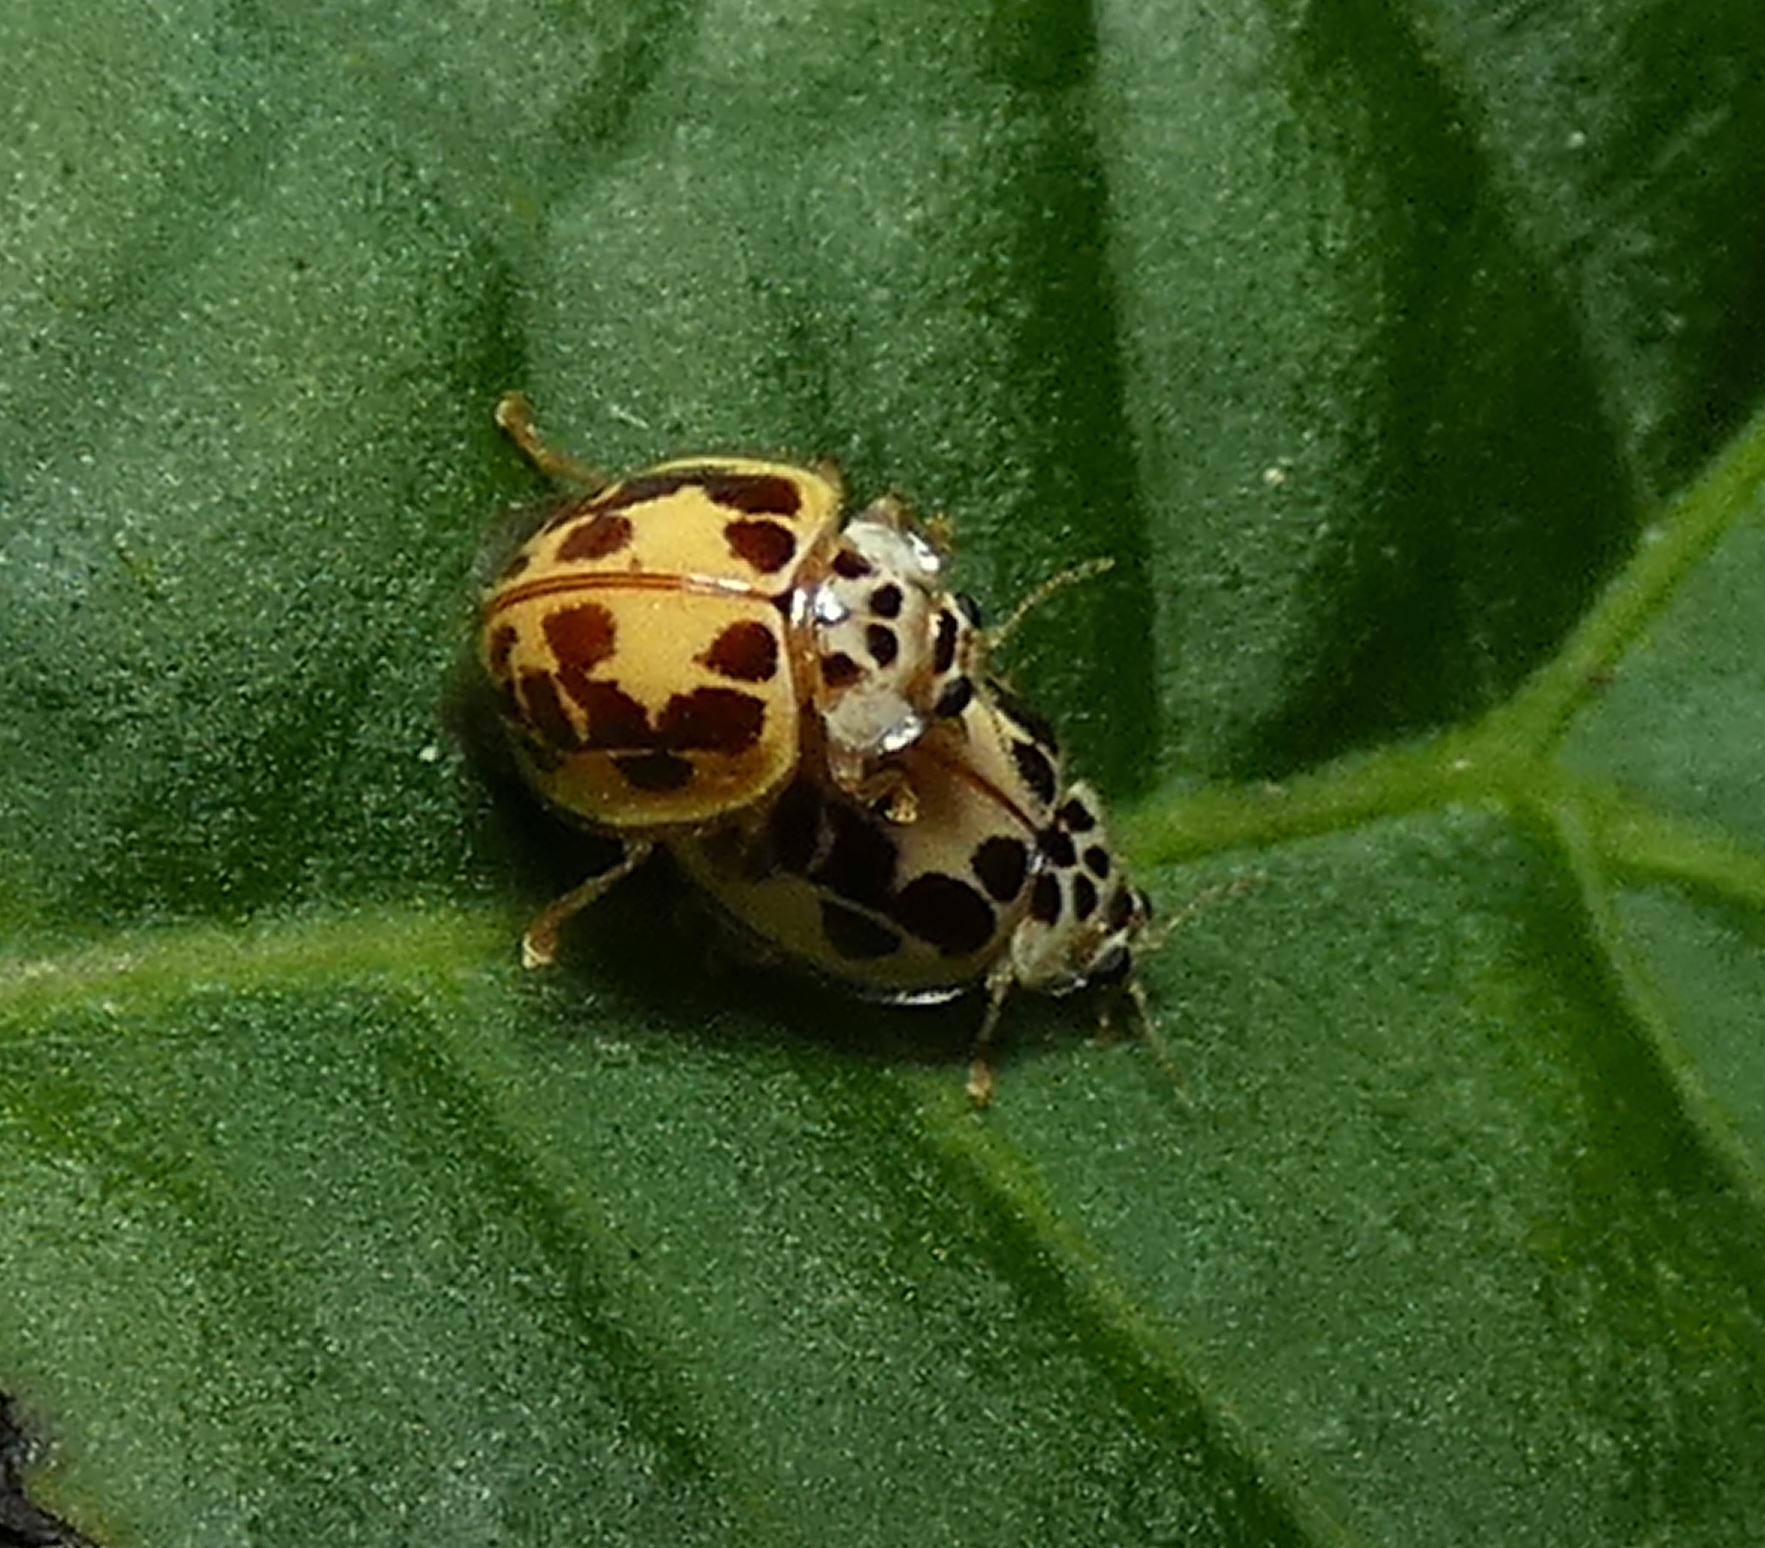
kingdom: Animalia
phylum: Arthropoda
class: Insecta
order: Coleoptera
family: Coccinellidae
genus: Psyllobora
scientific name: Psyllobora confluens
